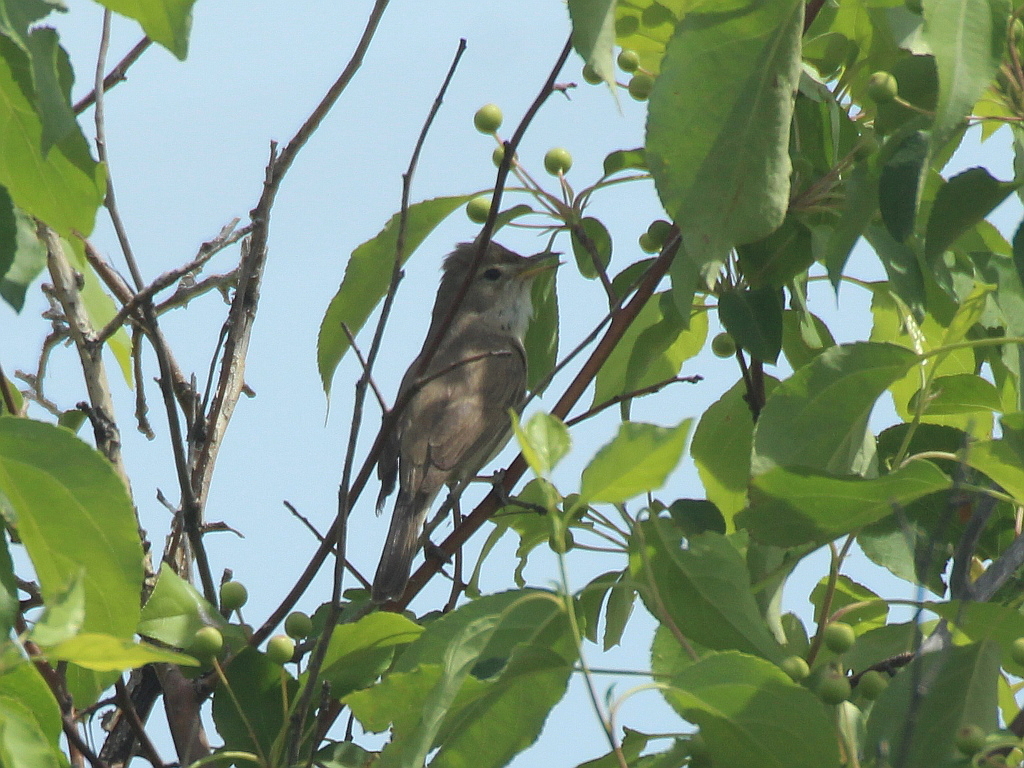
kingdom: Animalia
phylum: Chordata
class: Aves
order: Passeriformes
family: Acrocephalidae
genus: Iduna
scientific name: Iduna caligata
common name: Booted warbler
